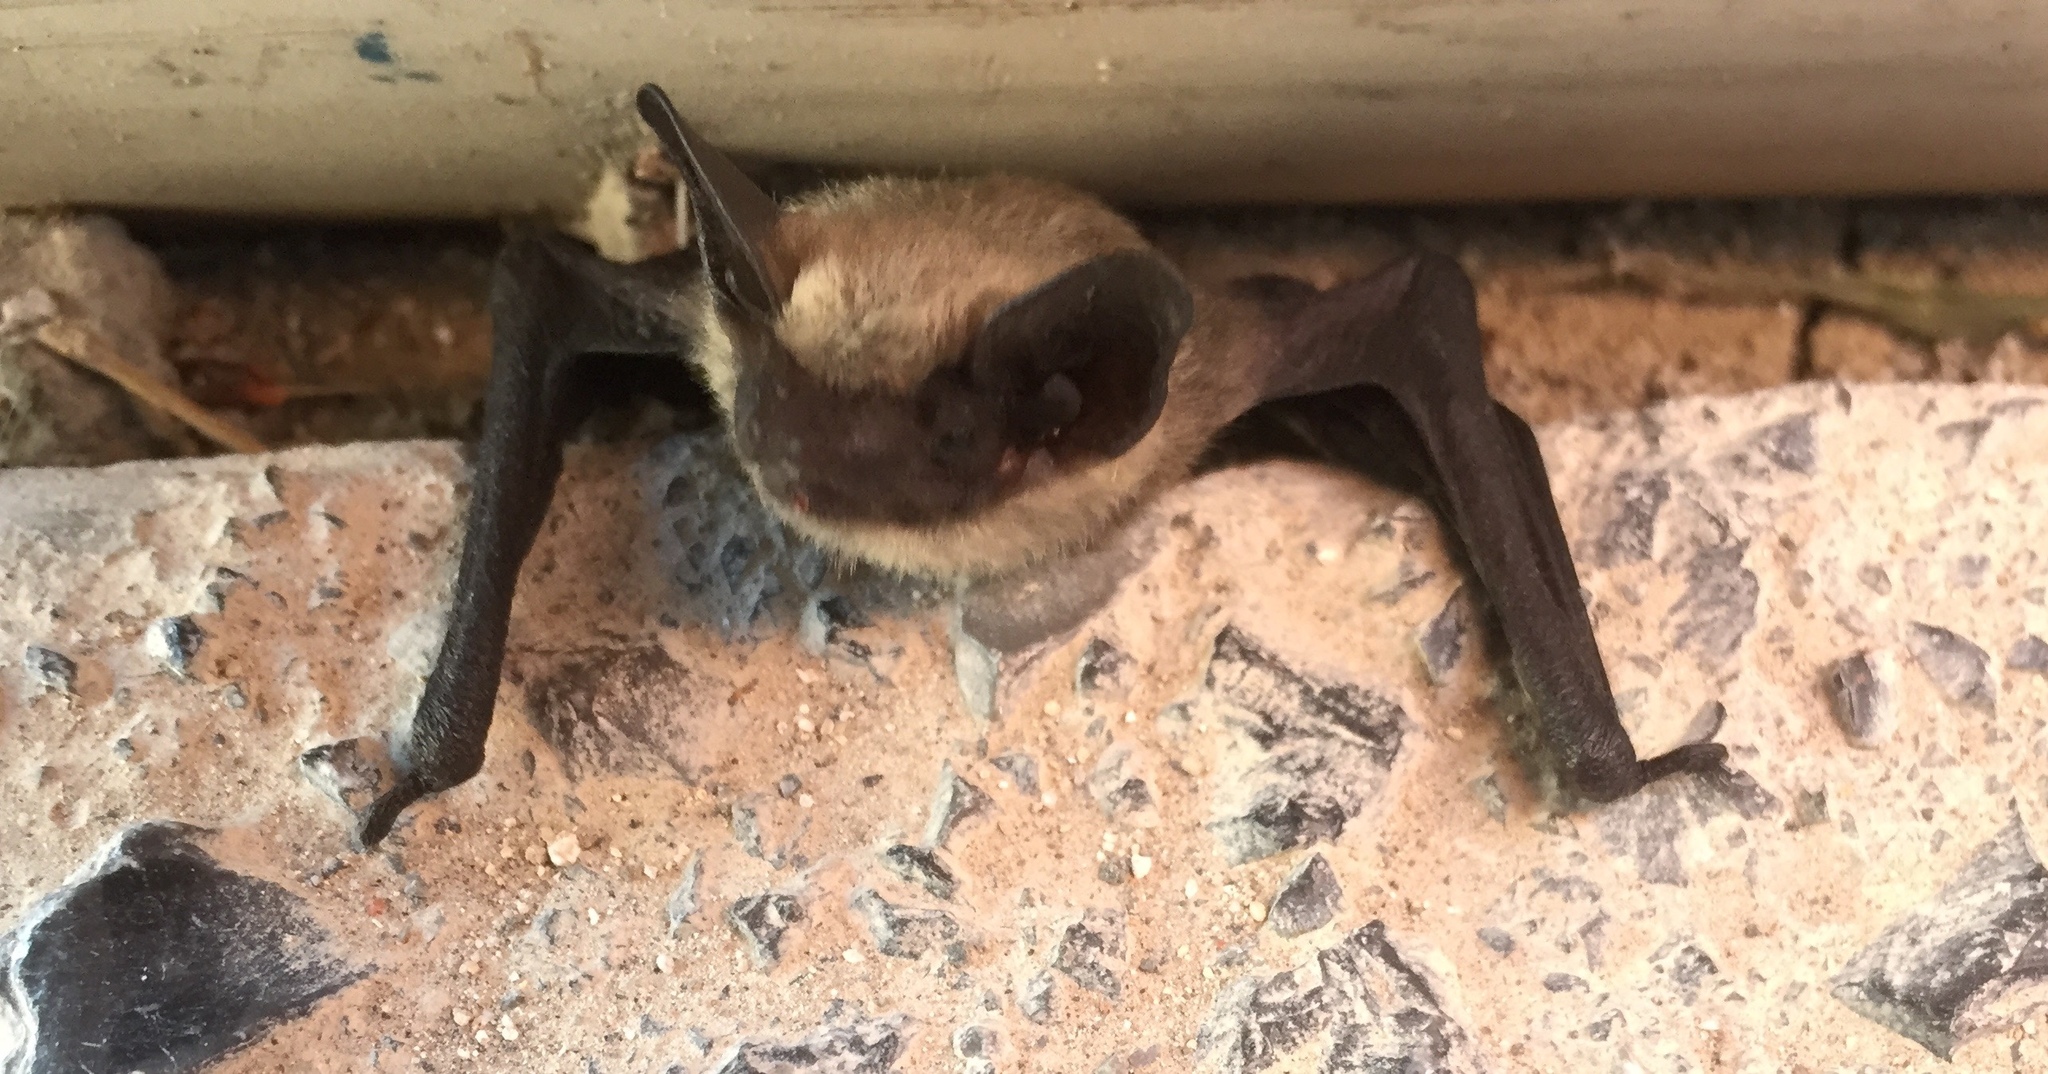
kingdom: Animalia
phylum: Chordata
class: Mammalia
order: Chiroptera
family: Vespertilionidae
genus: Parastrellus
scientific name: Parastrellus hesperus
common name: Canyon bat
